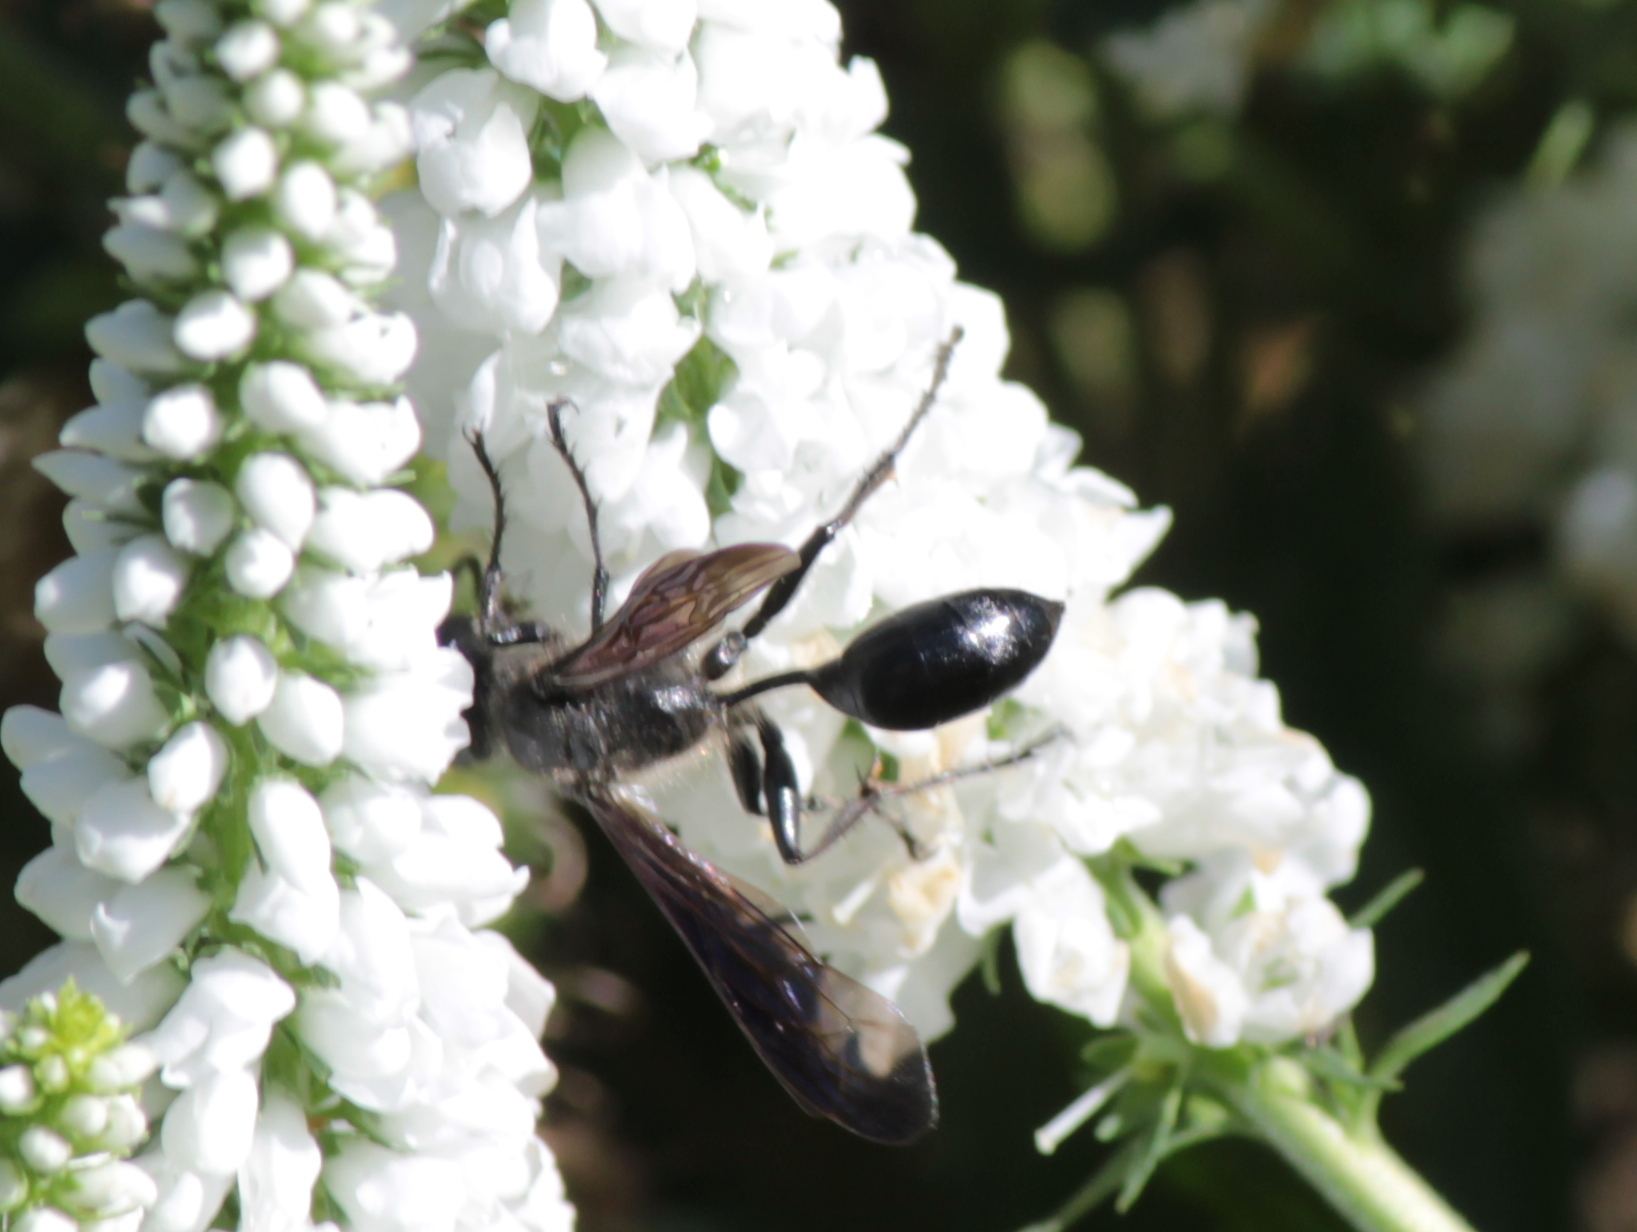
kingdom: Animalia
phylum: Arthropoda
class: Insecta
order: Hymenoptera
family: Sphecidae
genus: Isodontia
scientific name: Isodontia mexicana
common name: Mud dauber
